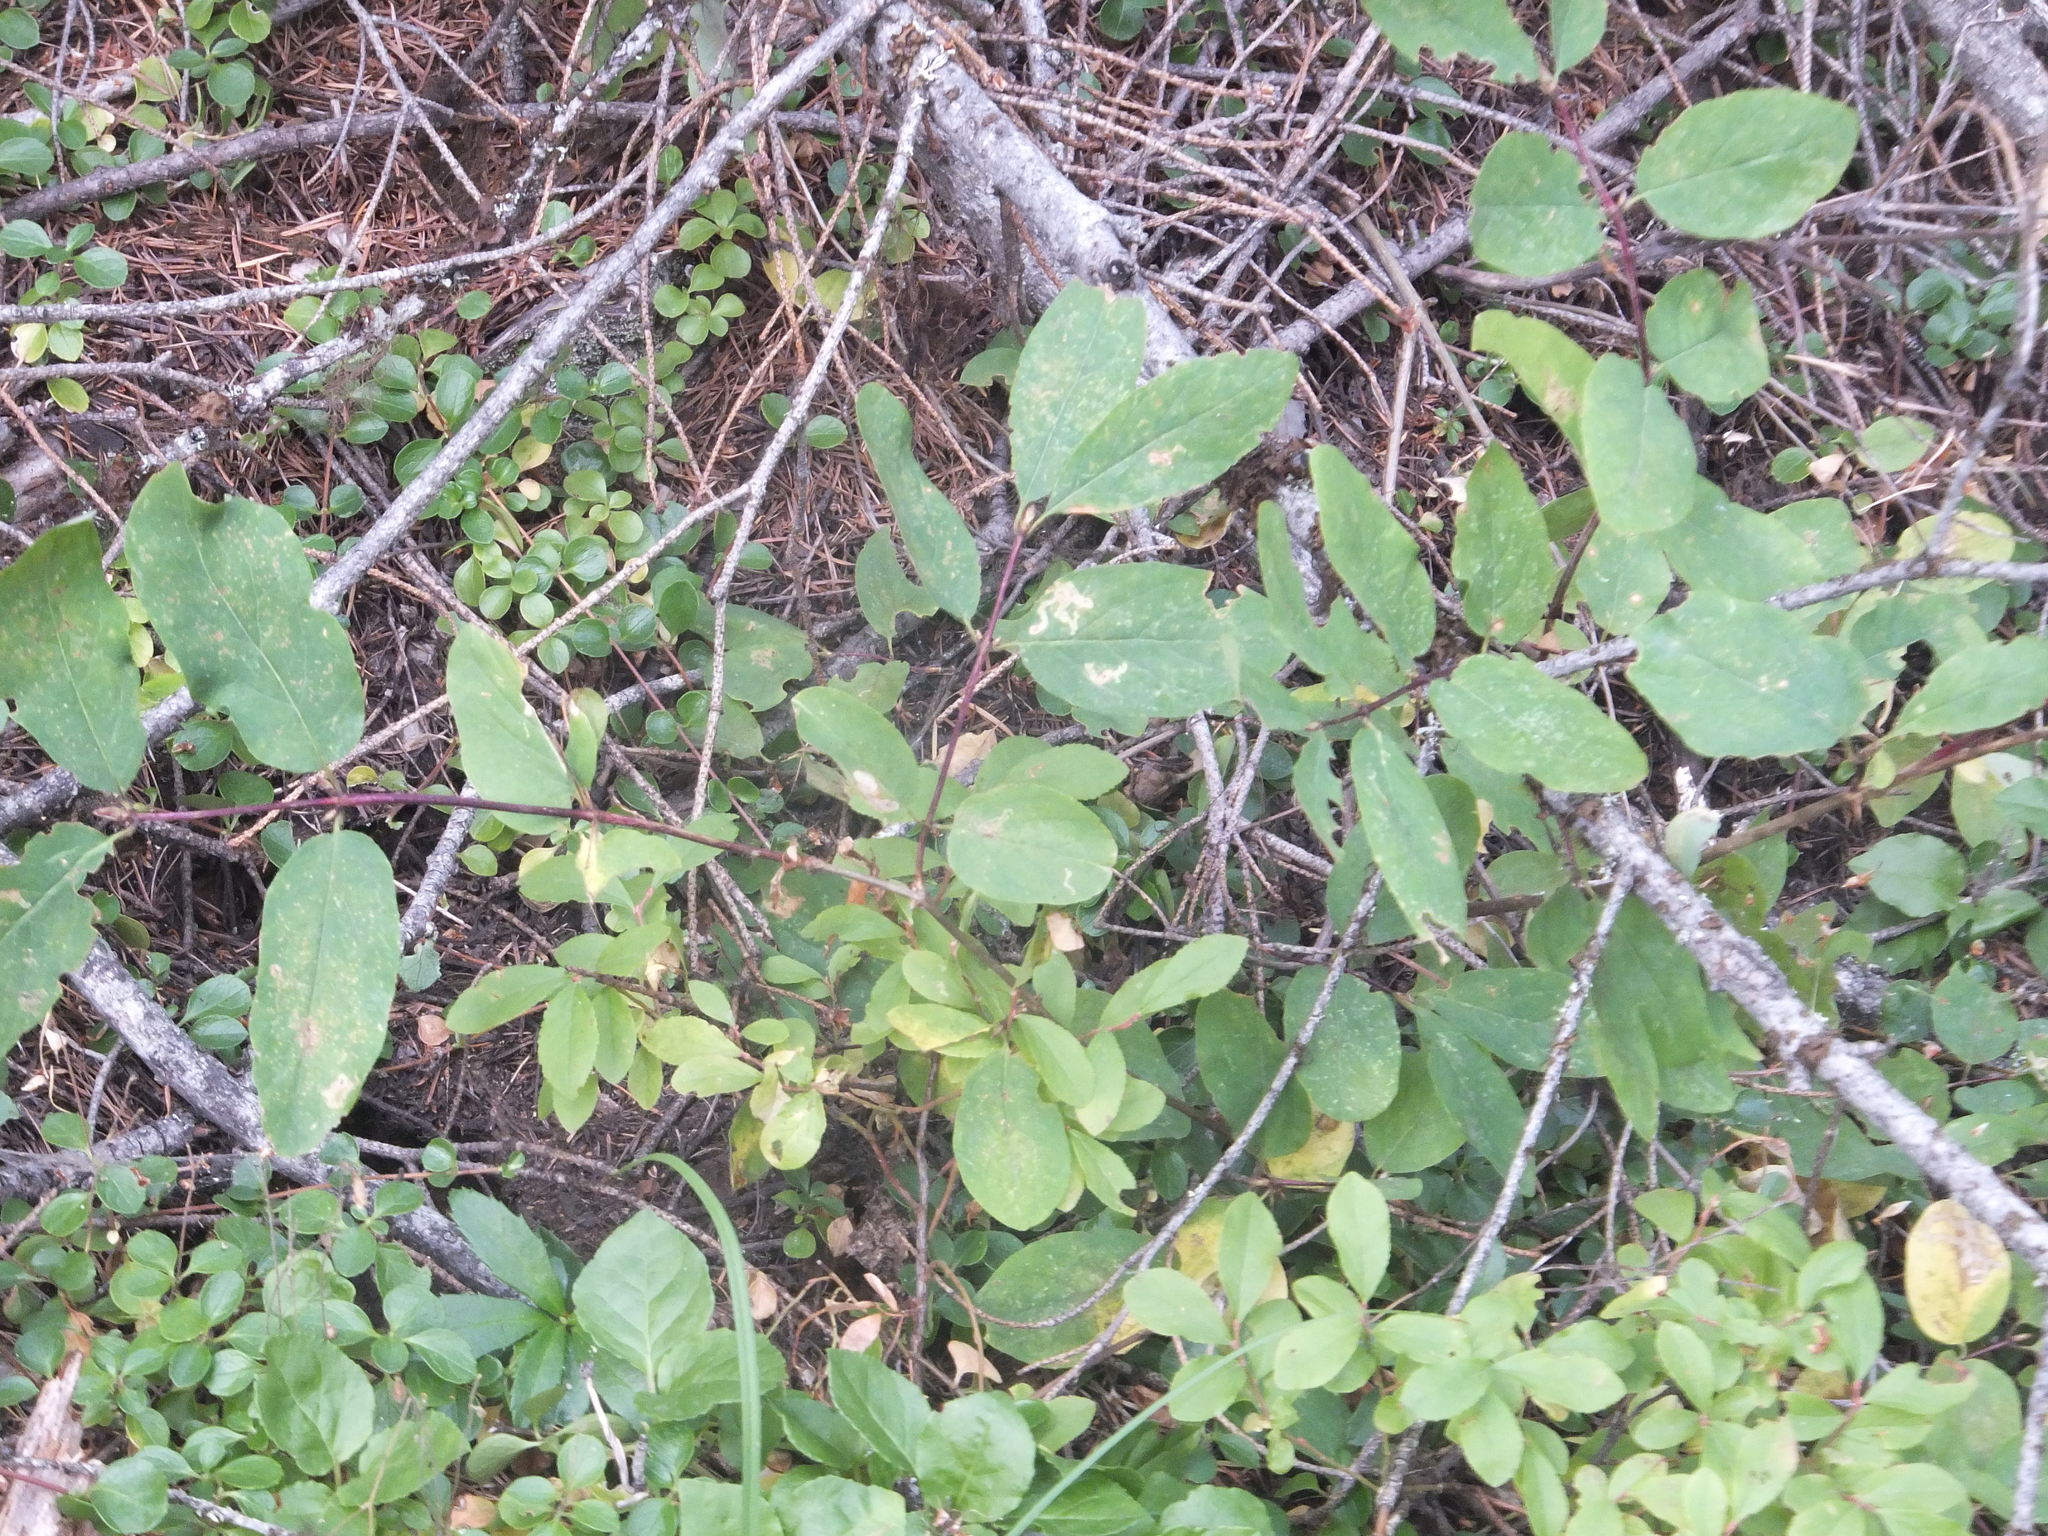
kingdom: Plantae
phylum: Tracheophyta
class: Magnoliopsida
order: Dipsacales
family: Caprifoliaceae
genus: Lonicera
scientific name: Lonicera utahensis
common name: Utah honeysuckle
